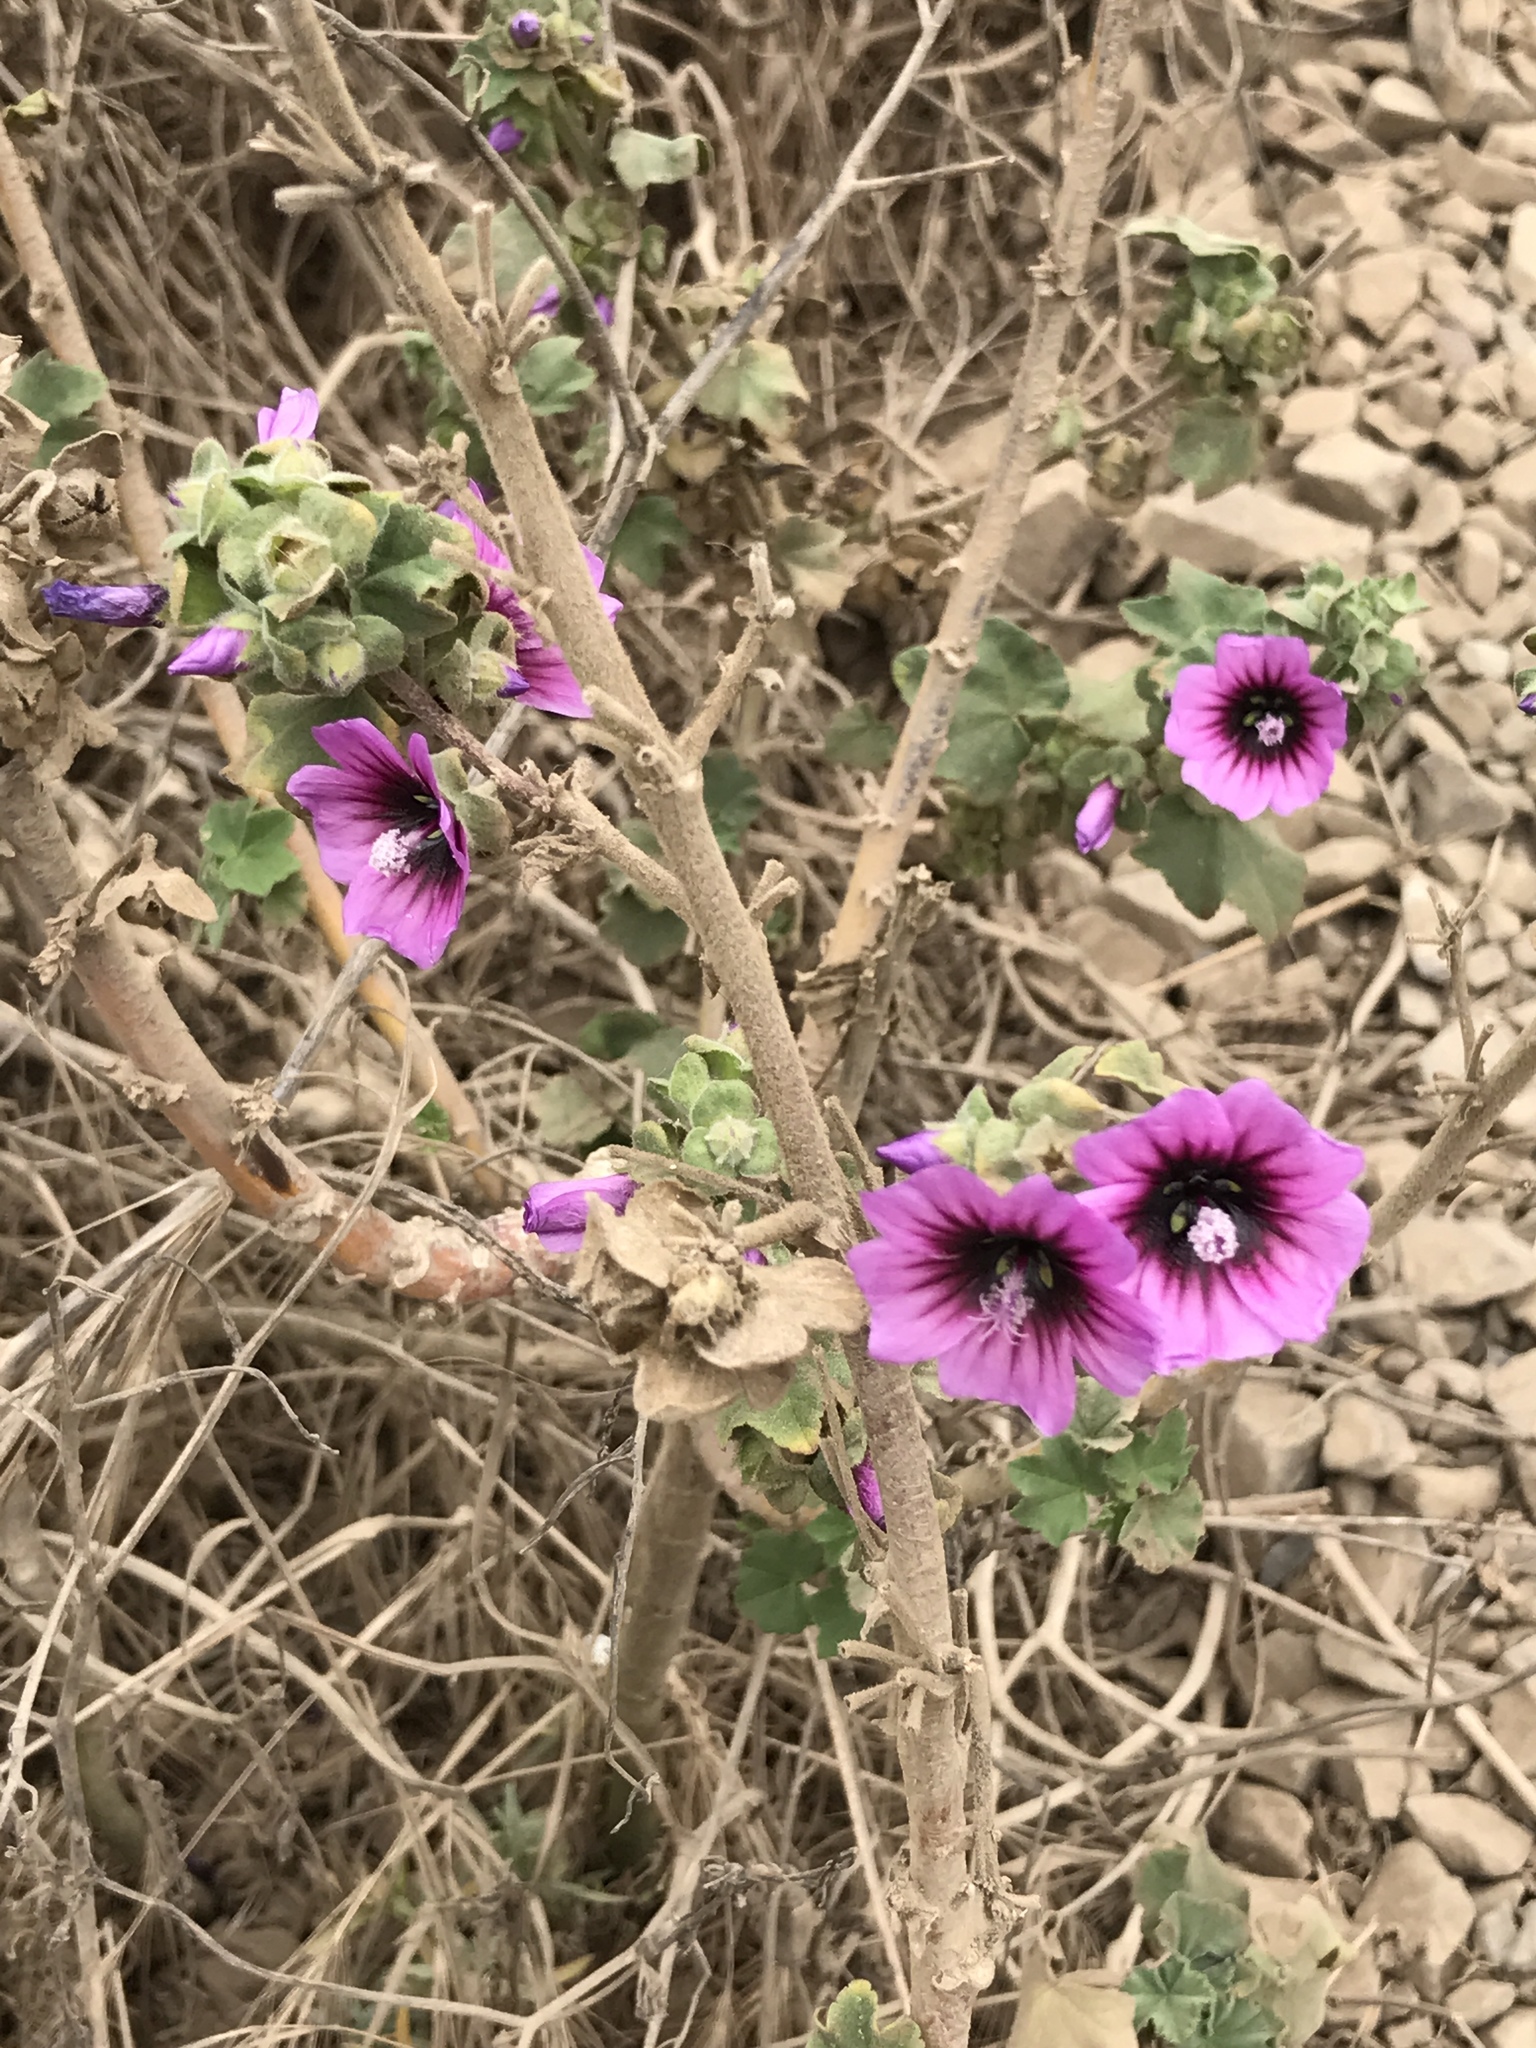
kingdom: Plantae
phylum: Tracheophyta
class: Magnoliopsida
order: Malvales
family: Malvaceae
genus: Malva
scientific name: Malva arborea
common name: Tree mallow
